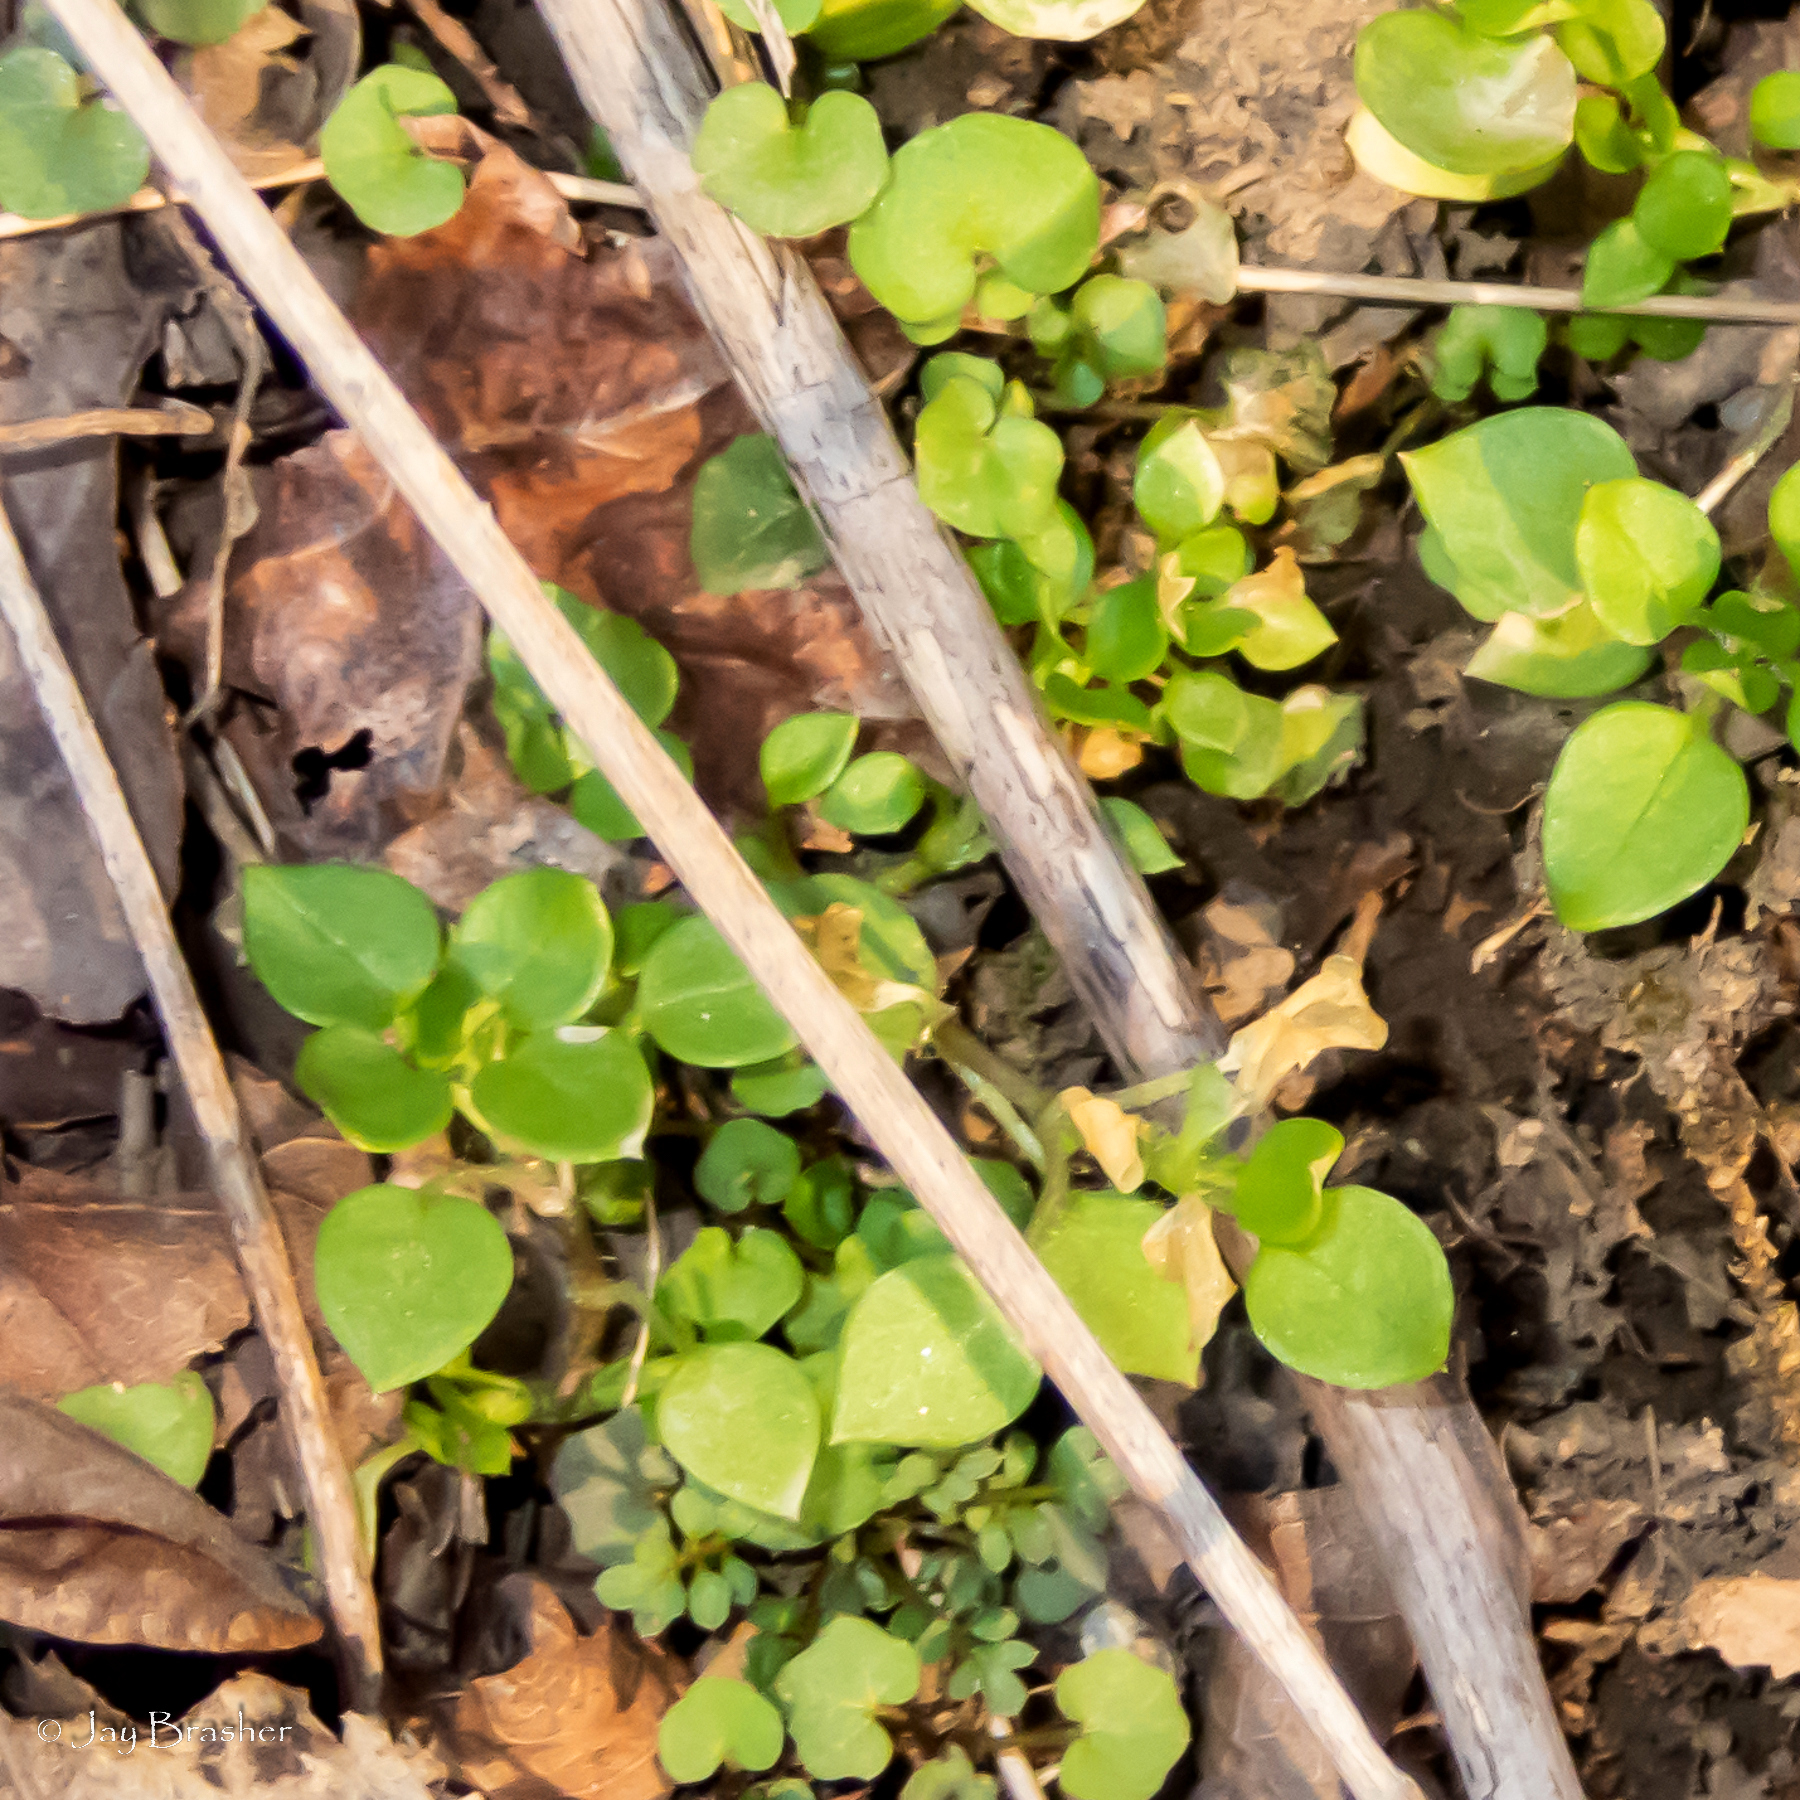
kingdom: Plantae
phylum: Tracheophyta
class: Magnoliopsida
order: Caryophyllales
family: Caryophyllaceae
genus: Stellaria
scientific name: Stellaria media
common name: Common chickweed
